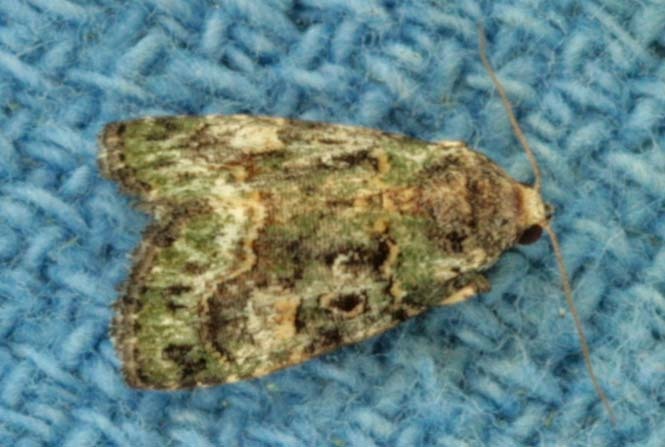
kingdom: Animalia
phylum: Arthropoda
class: Insecta
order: Lepidoptera
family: Noctuidae
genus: Lithacodia
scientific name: Lithacodia musta
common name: Small mossy glyph
